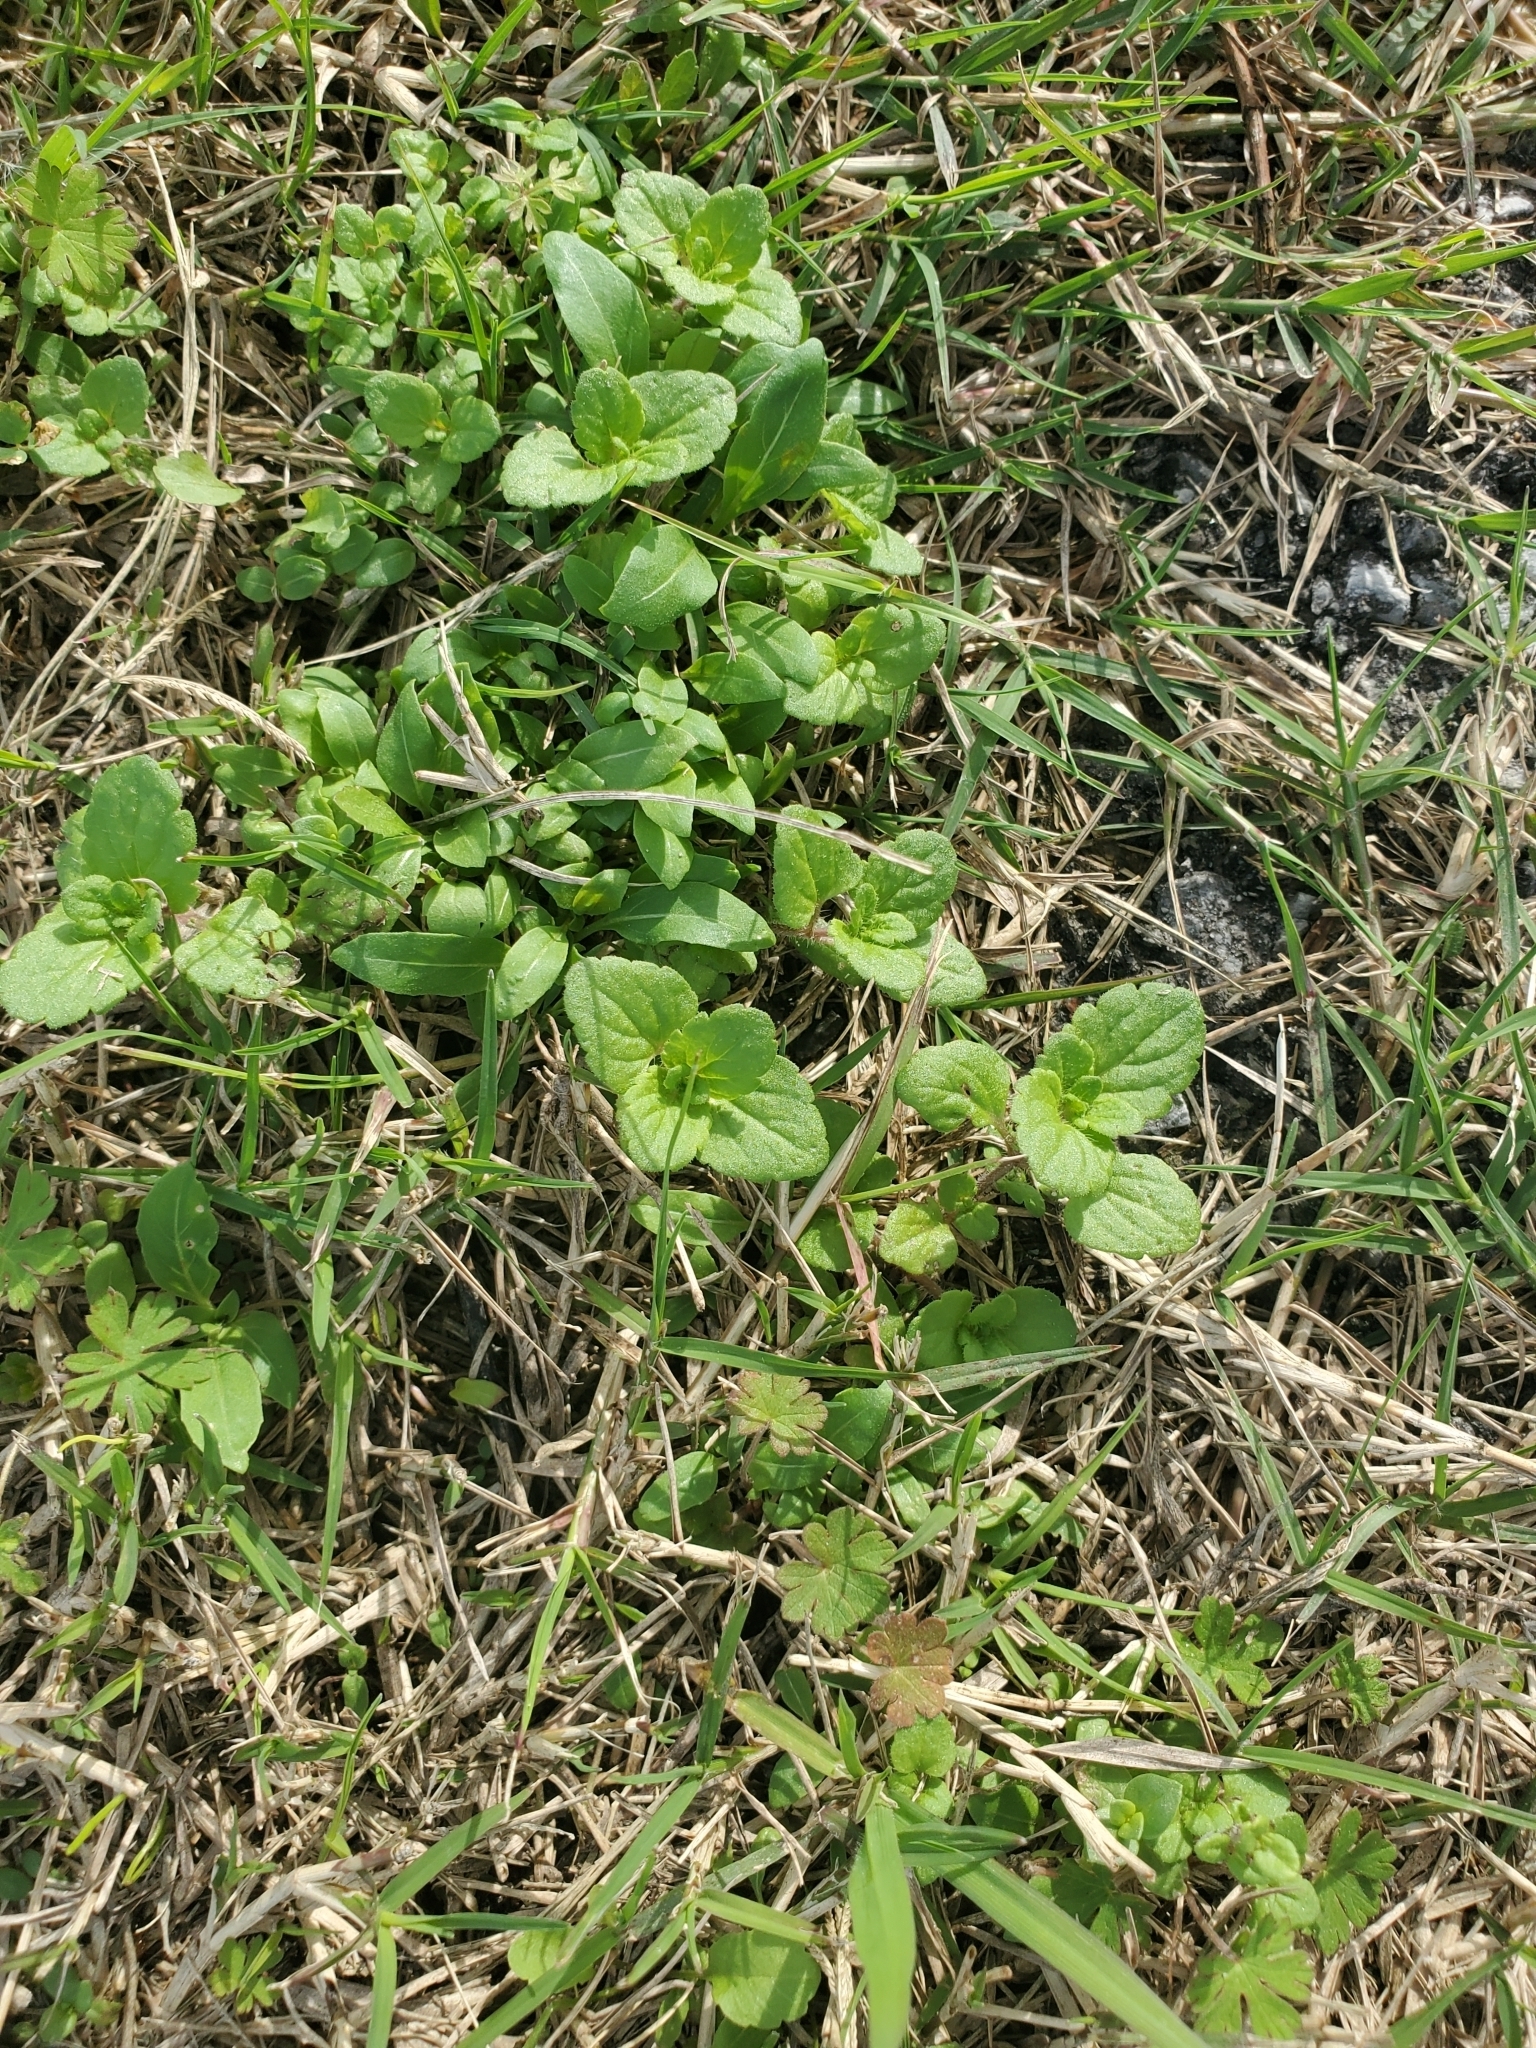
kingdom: Plantae
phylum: Tracheophyta
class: Magnoliopsida
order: Lamiales
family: Plantaginaceae
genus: Veronica
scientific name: Veronica arvensis
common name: Corn speedwell
